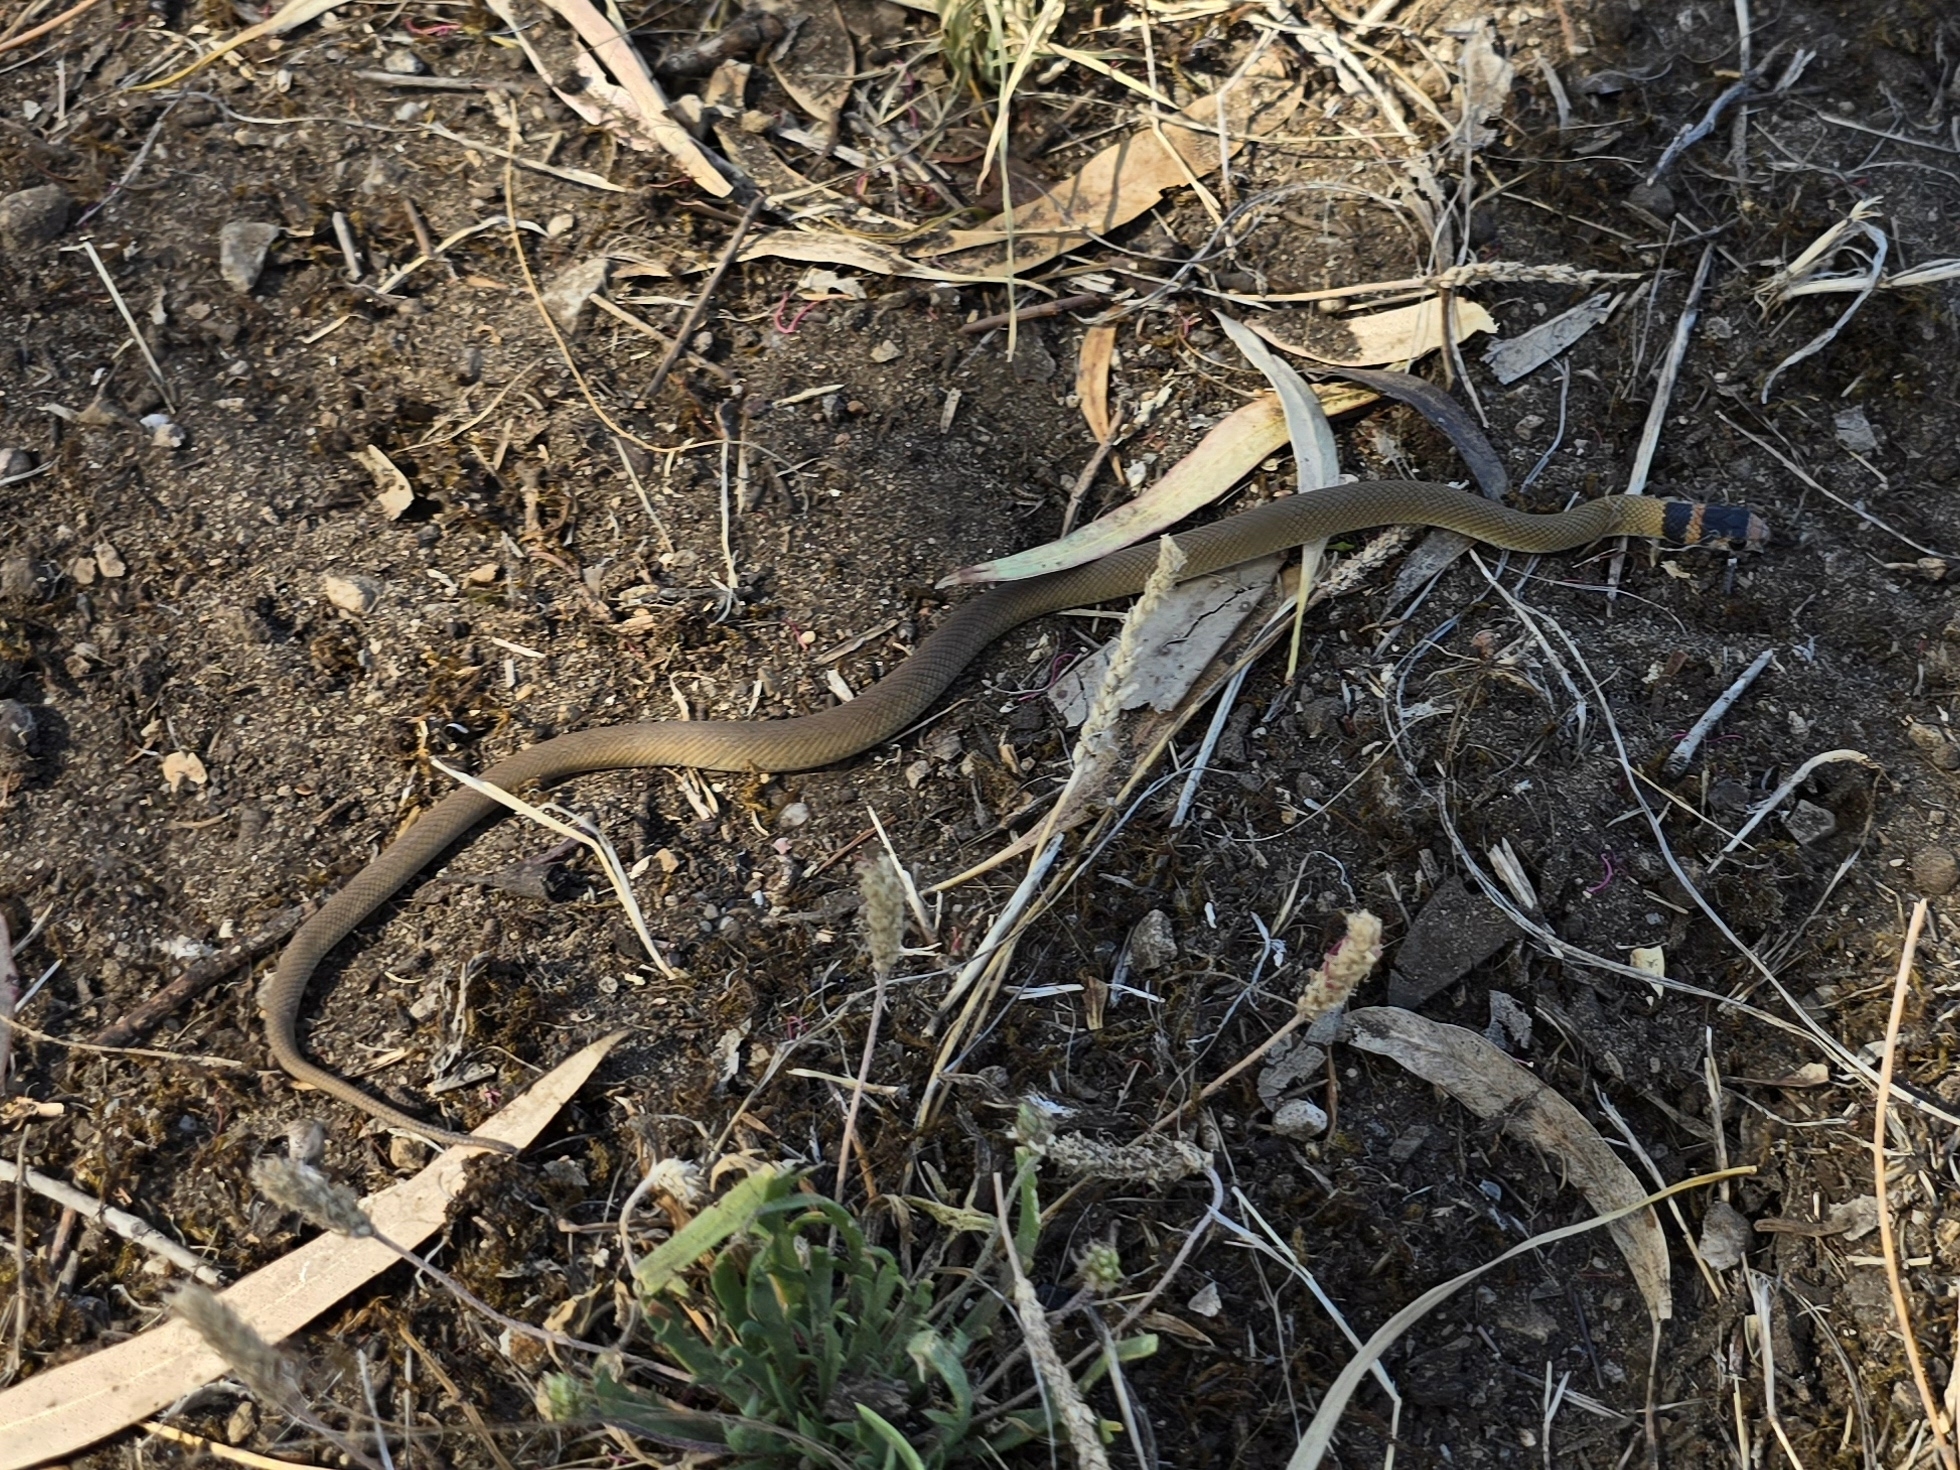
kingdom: Animalia
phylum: Chordata
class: Squamata
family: Elapidae
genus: Pseudonaja
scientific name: Pseudonaja textilis
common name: Eastern brown snake
